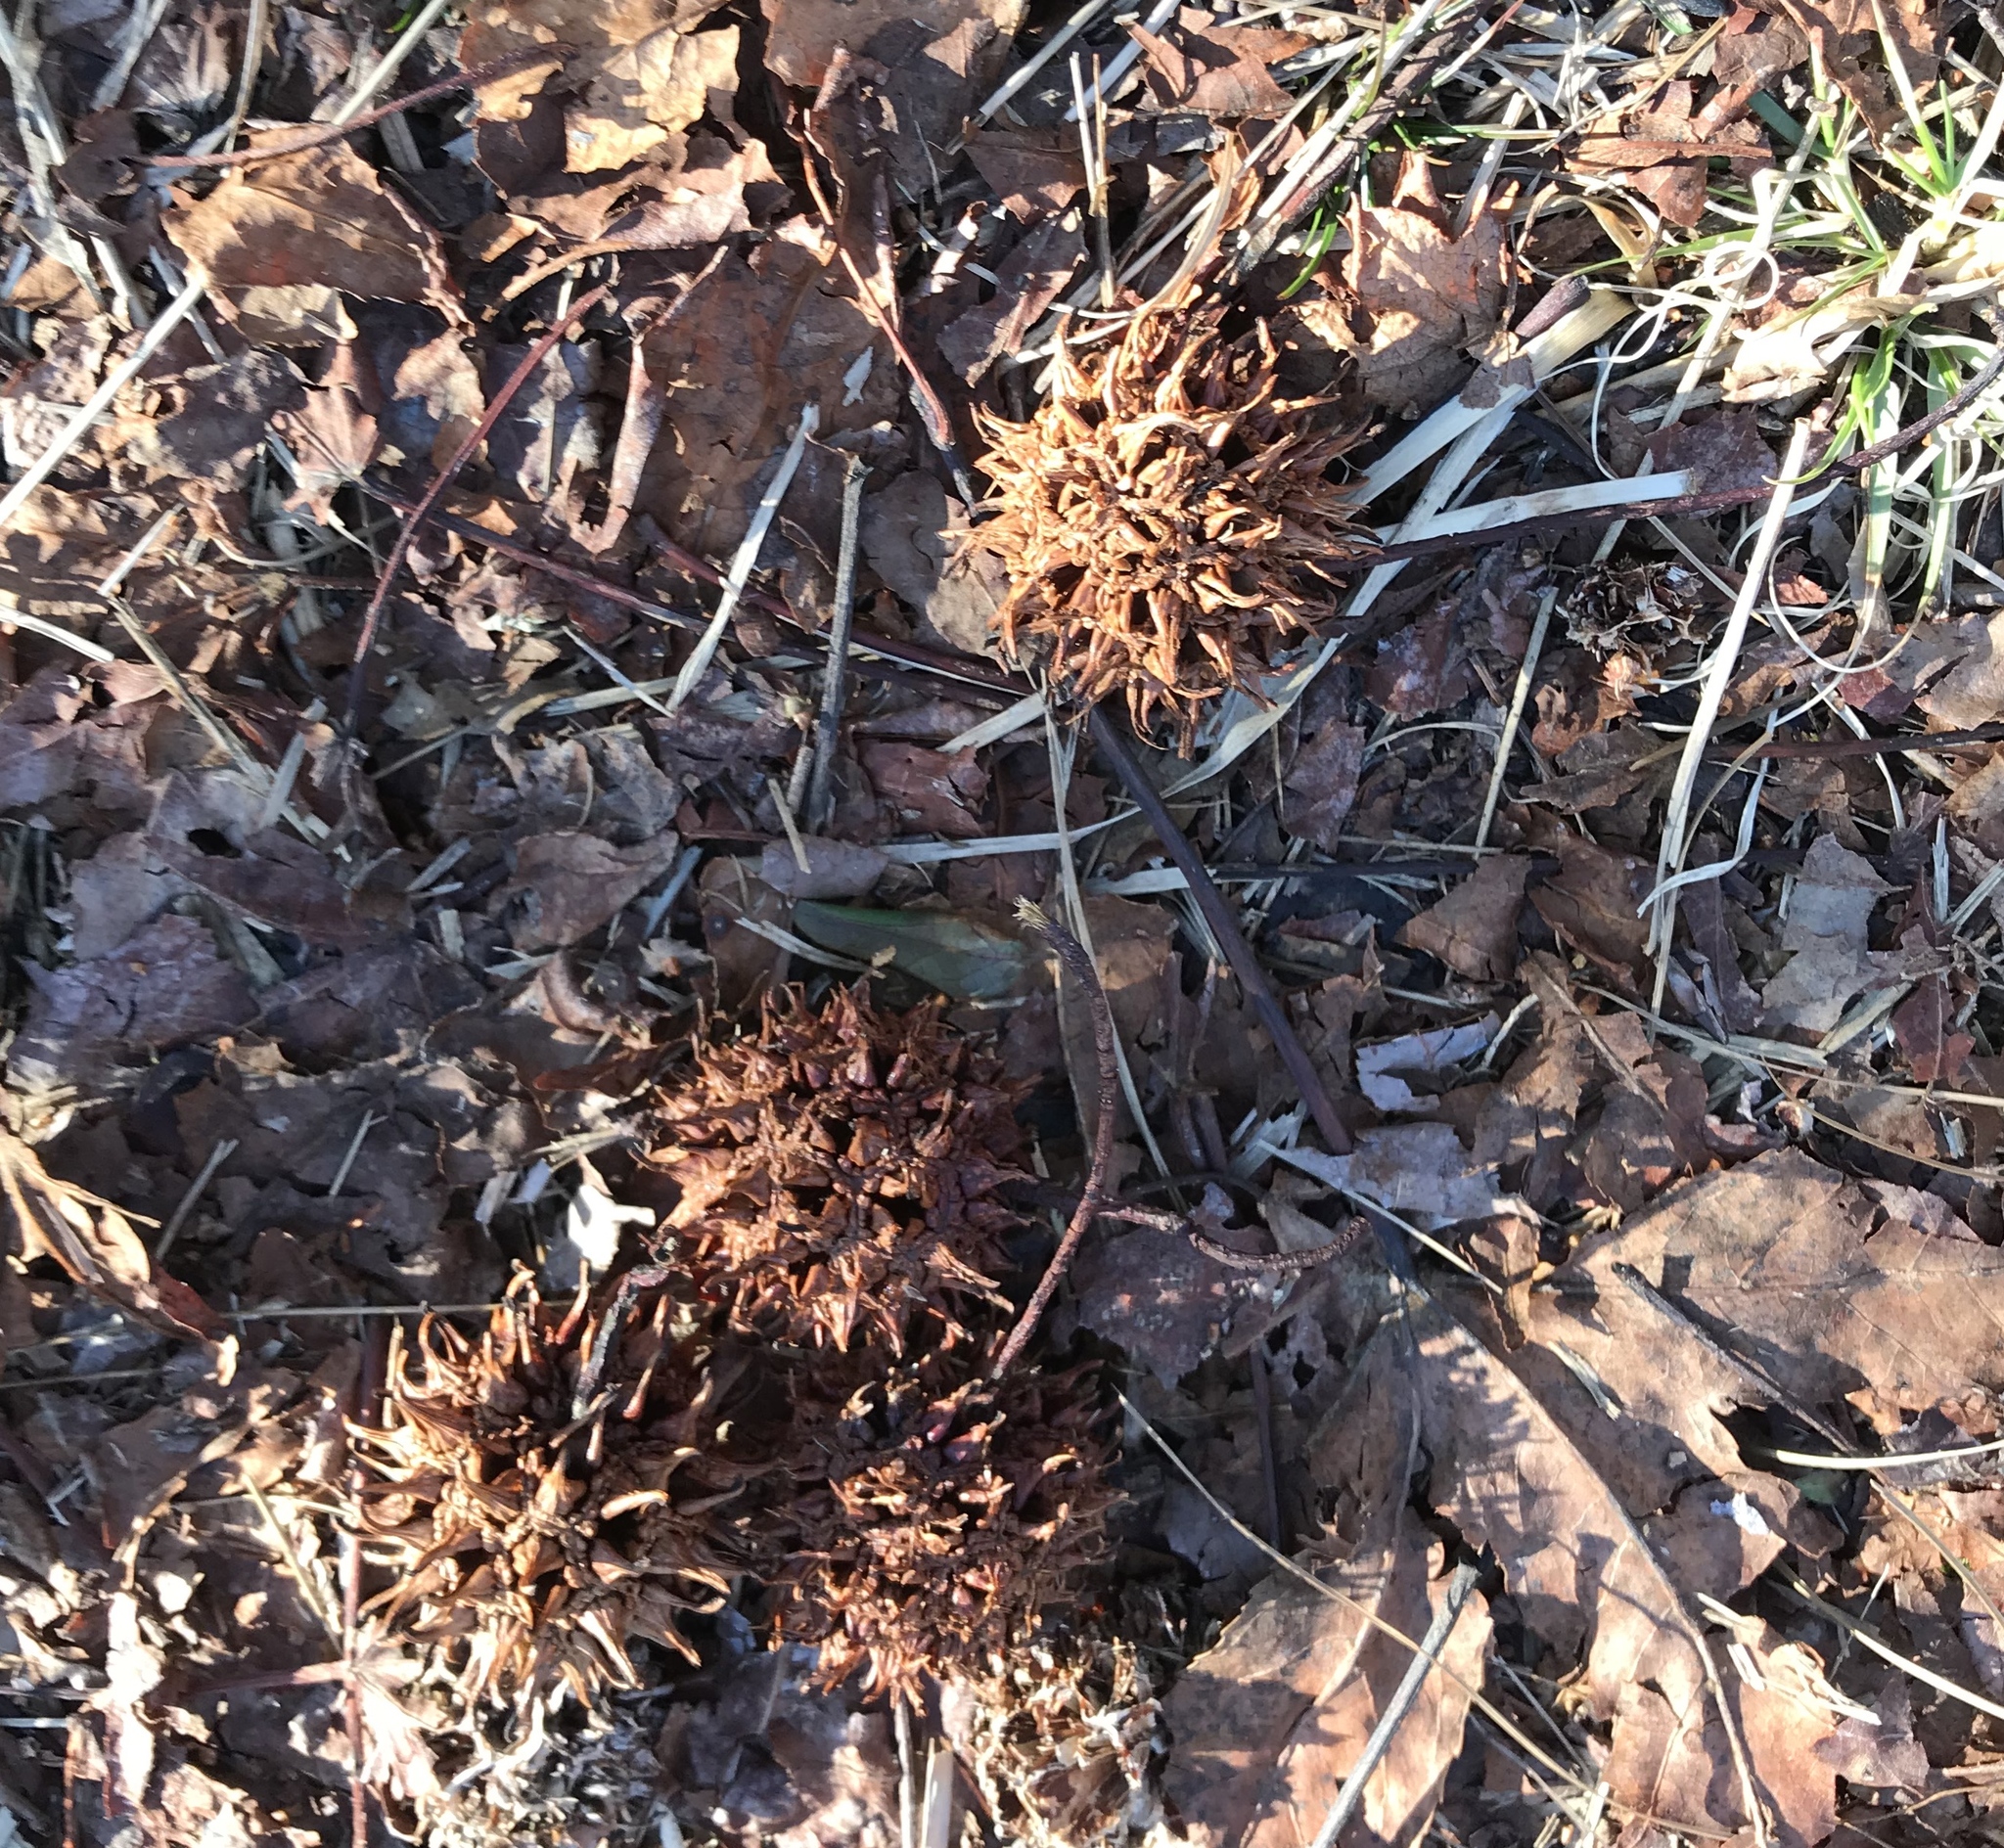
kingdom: Plantae
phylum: Tracheophyta
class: Magnoliopsida
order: Saxifragales
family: Altingiaceae
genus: Liquidambar
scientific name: Liquidambar styraciflua
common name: Sweet gum
